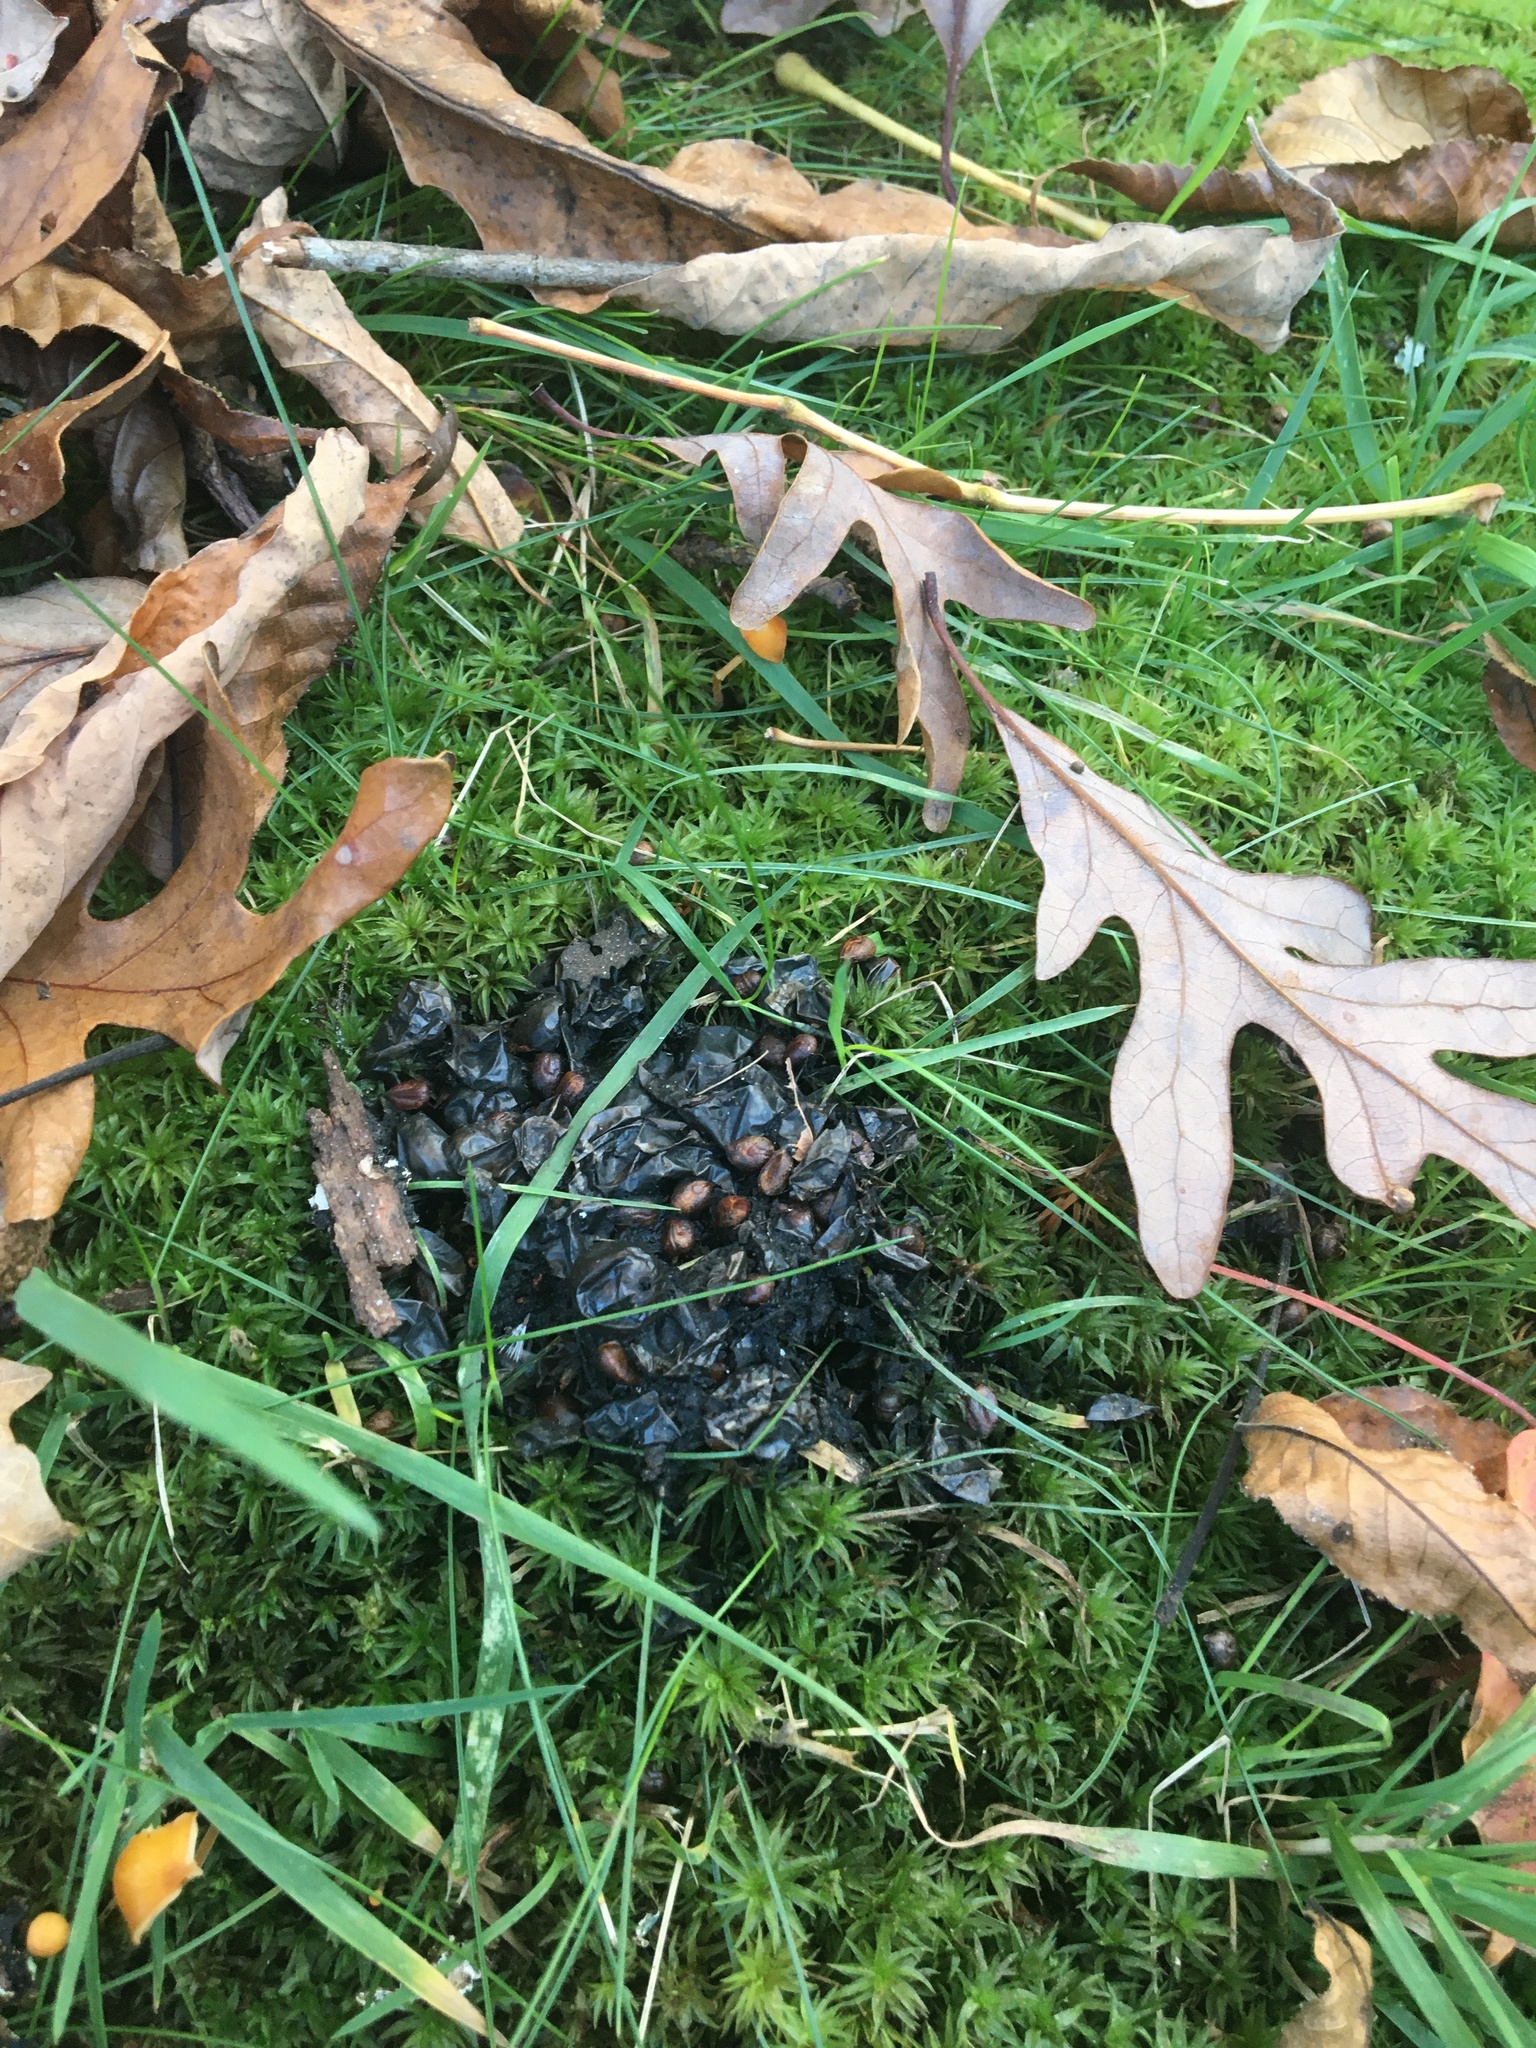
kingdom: Animalia
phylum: Chordata
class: Mammalia
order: Carnivora
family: Procyonidae
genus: Procyon
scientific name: Procyon lotor
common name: Raccoon
